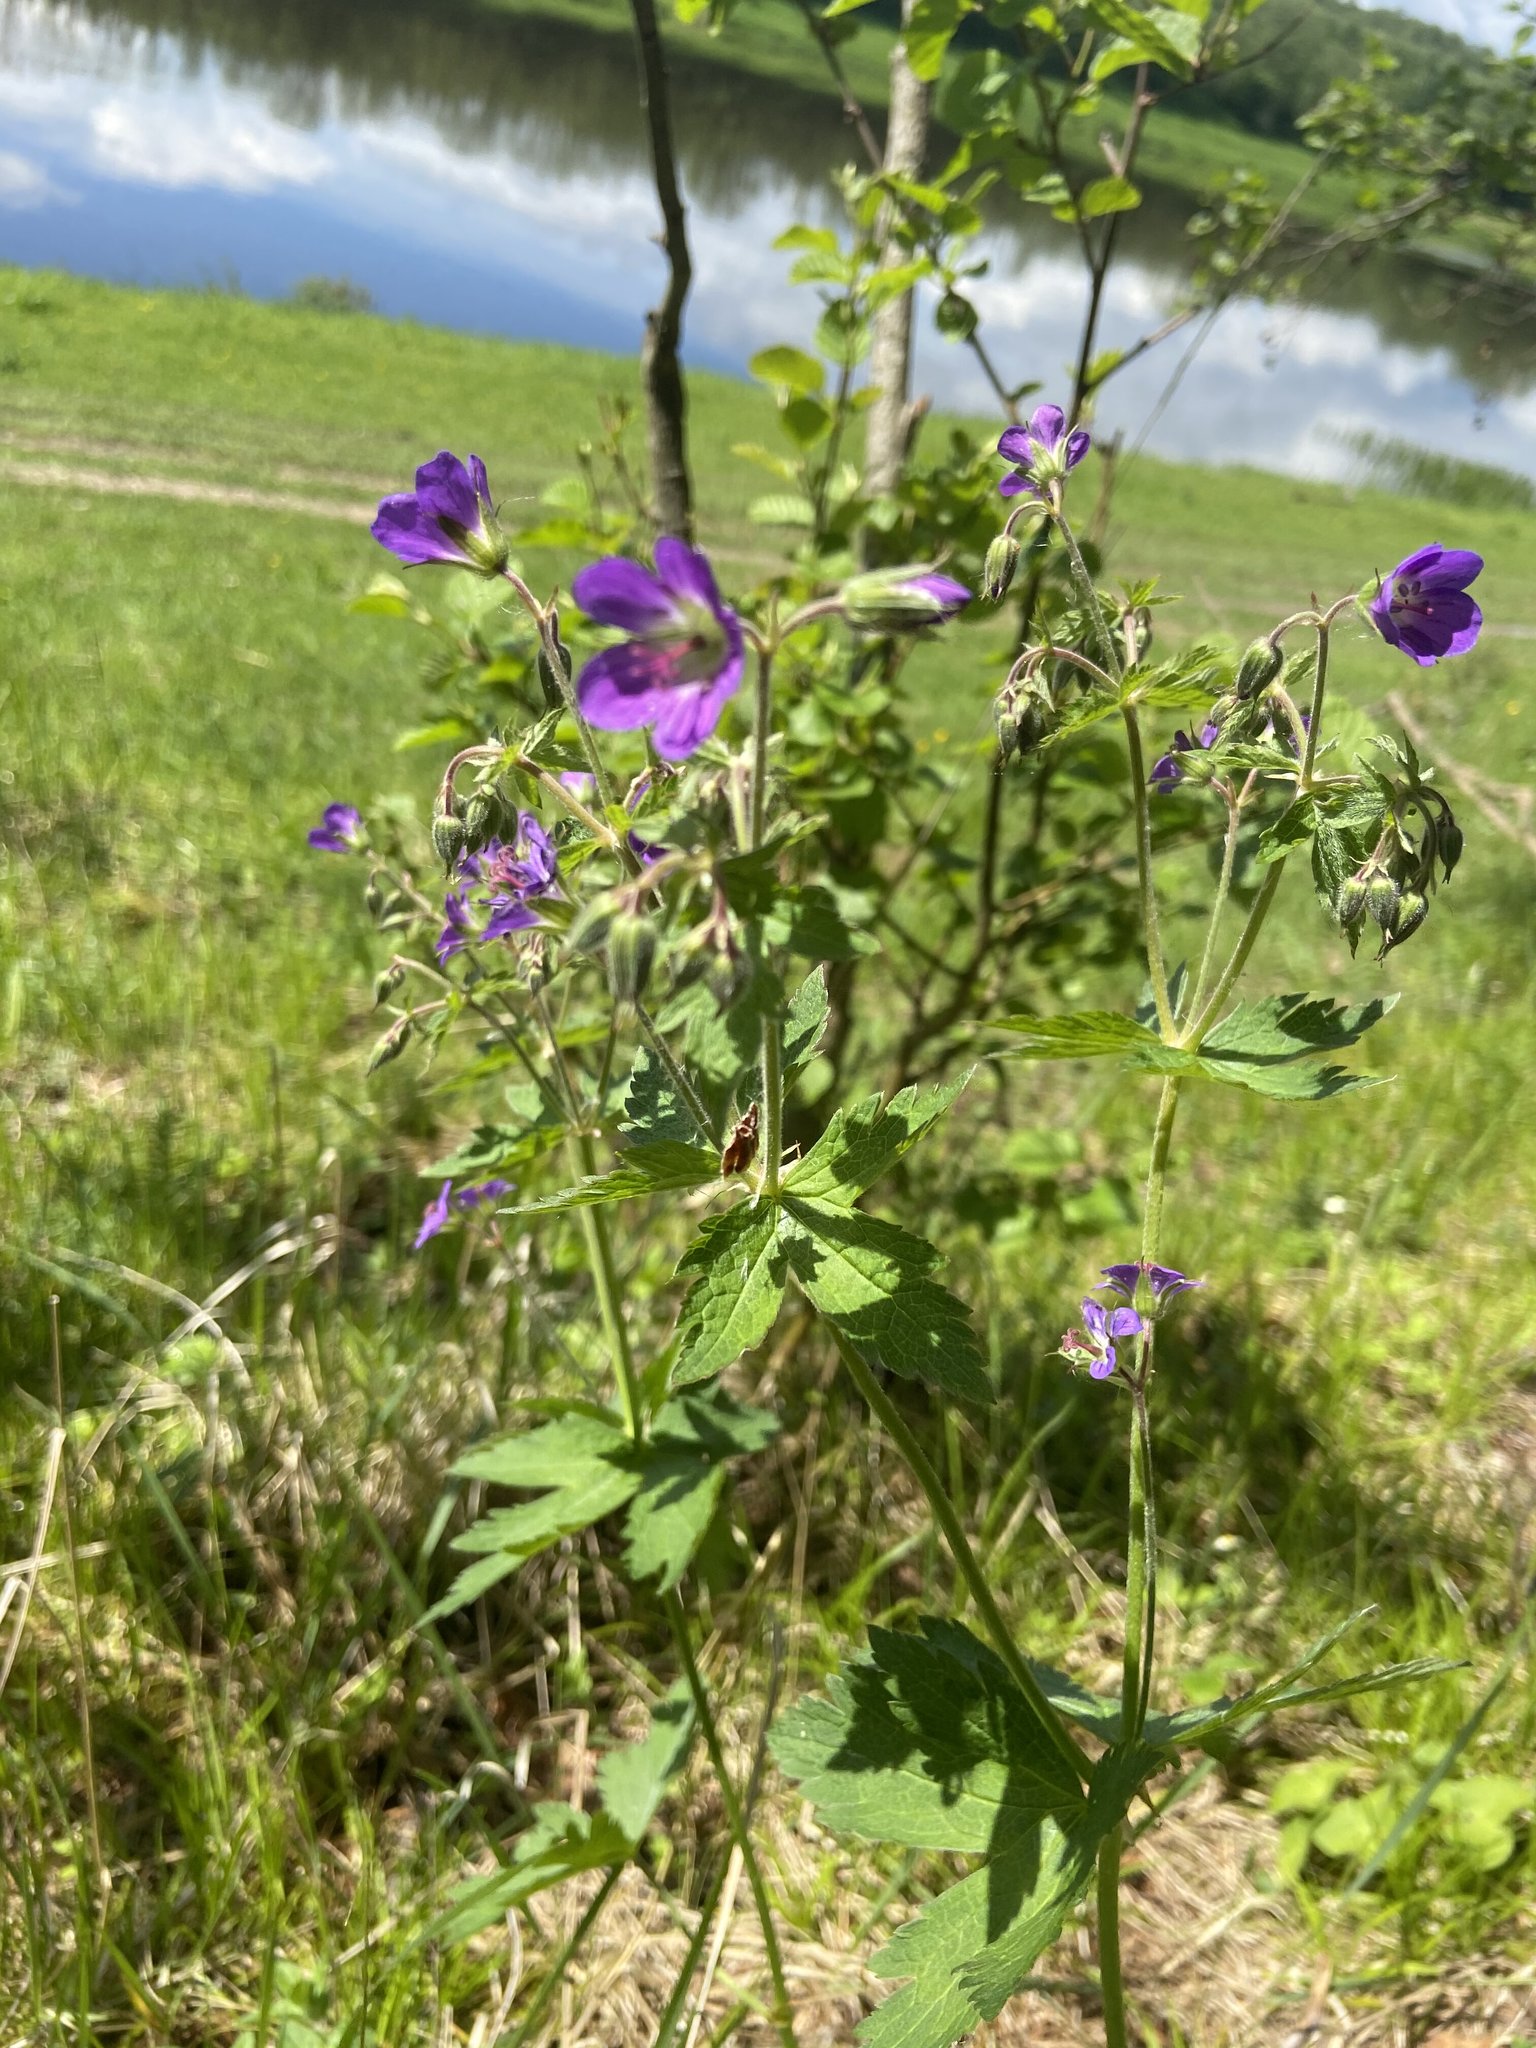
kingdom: Plantae
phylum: Tracheophyta
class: Magnoliopsida
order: Geraniales
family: Geraniaceae
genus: Geranium
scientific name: Geranium sylvaticum
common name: Wood crane's-bill
